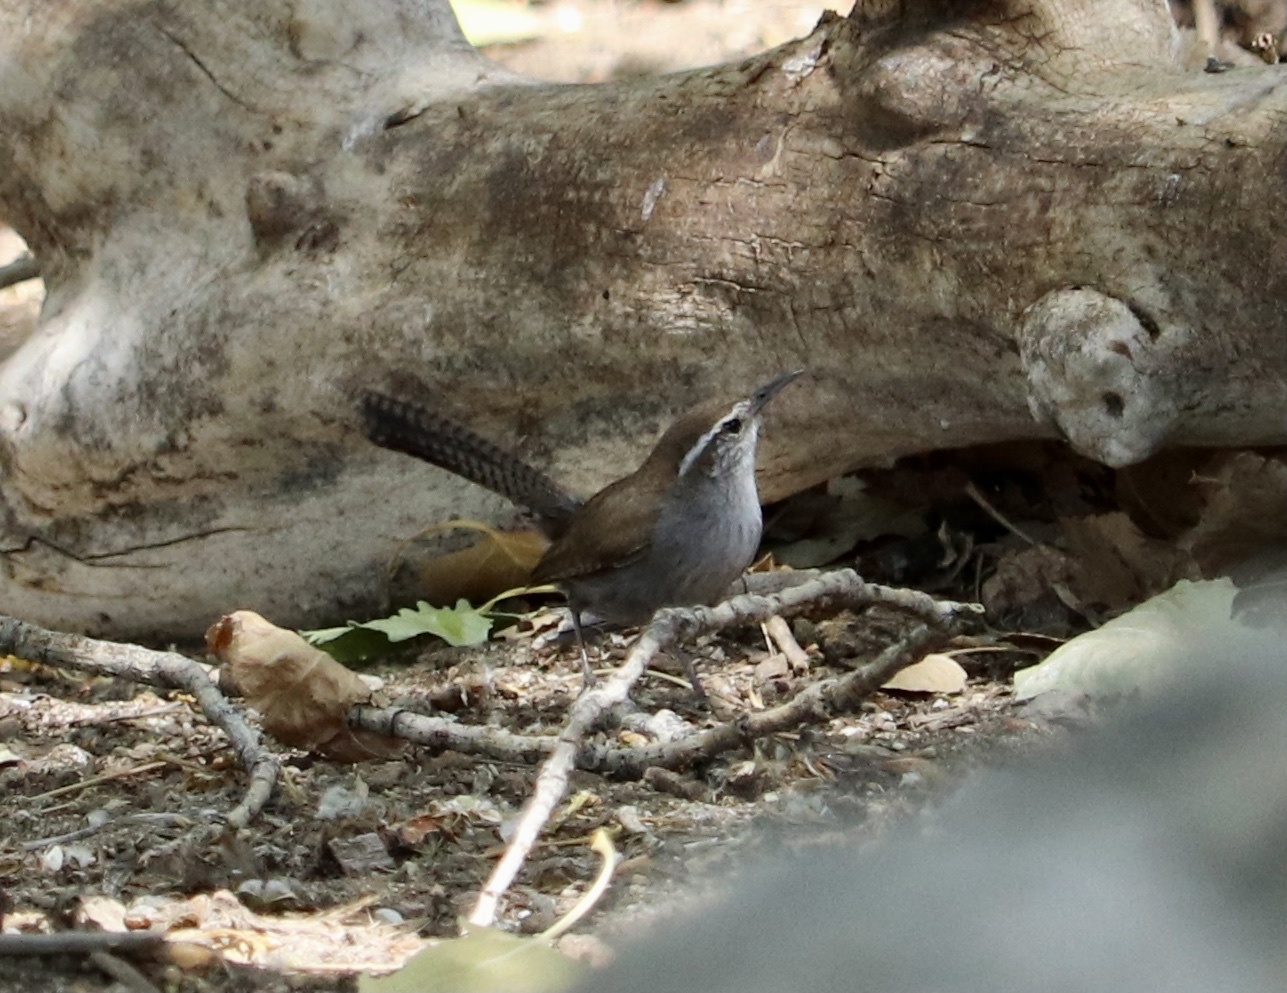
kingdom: Animalia
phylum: Chordata
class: Aves
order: Passeriformes
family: Troglodytidae
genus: Thryomanes
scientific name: Thryomanes bewickii
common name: Bewick's wren
